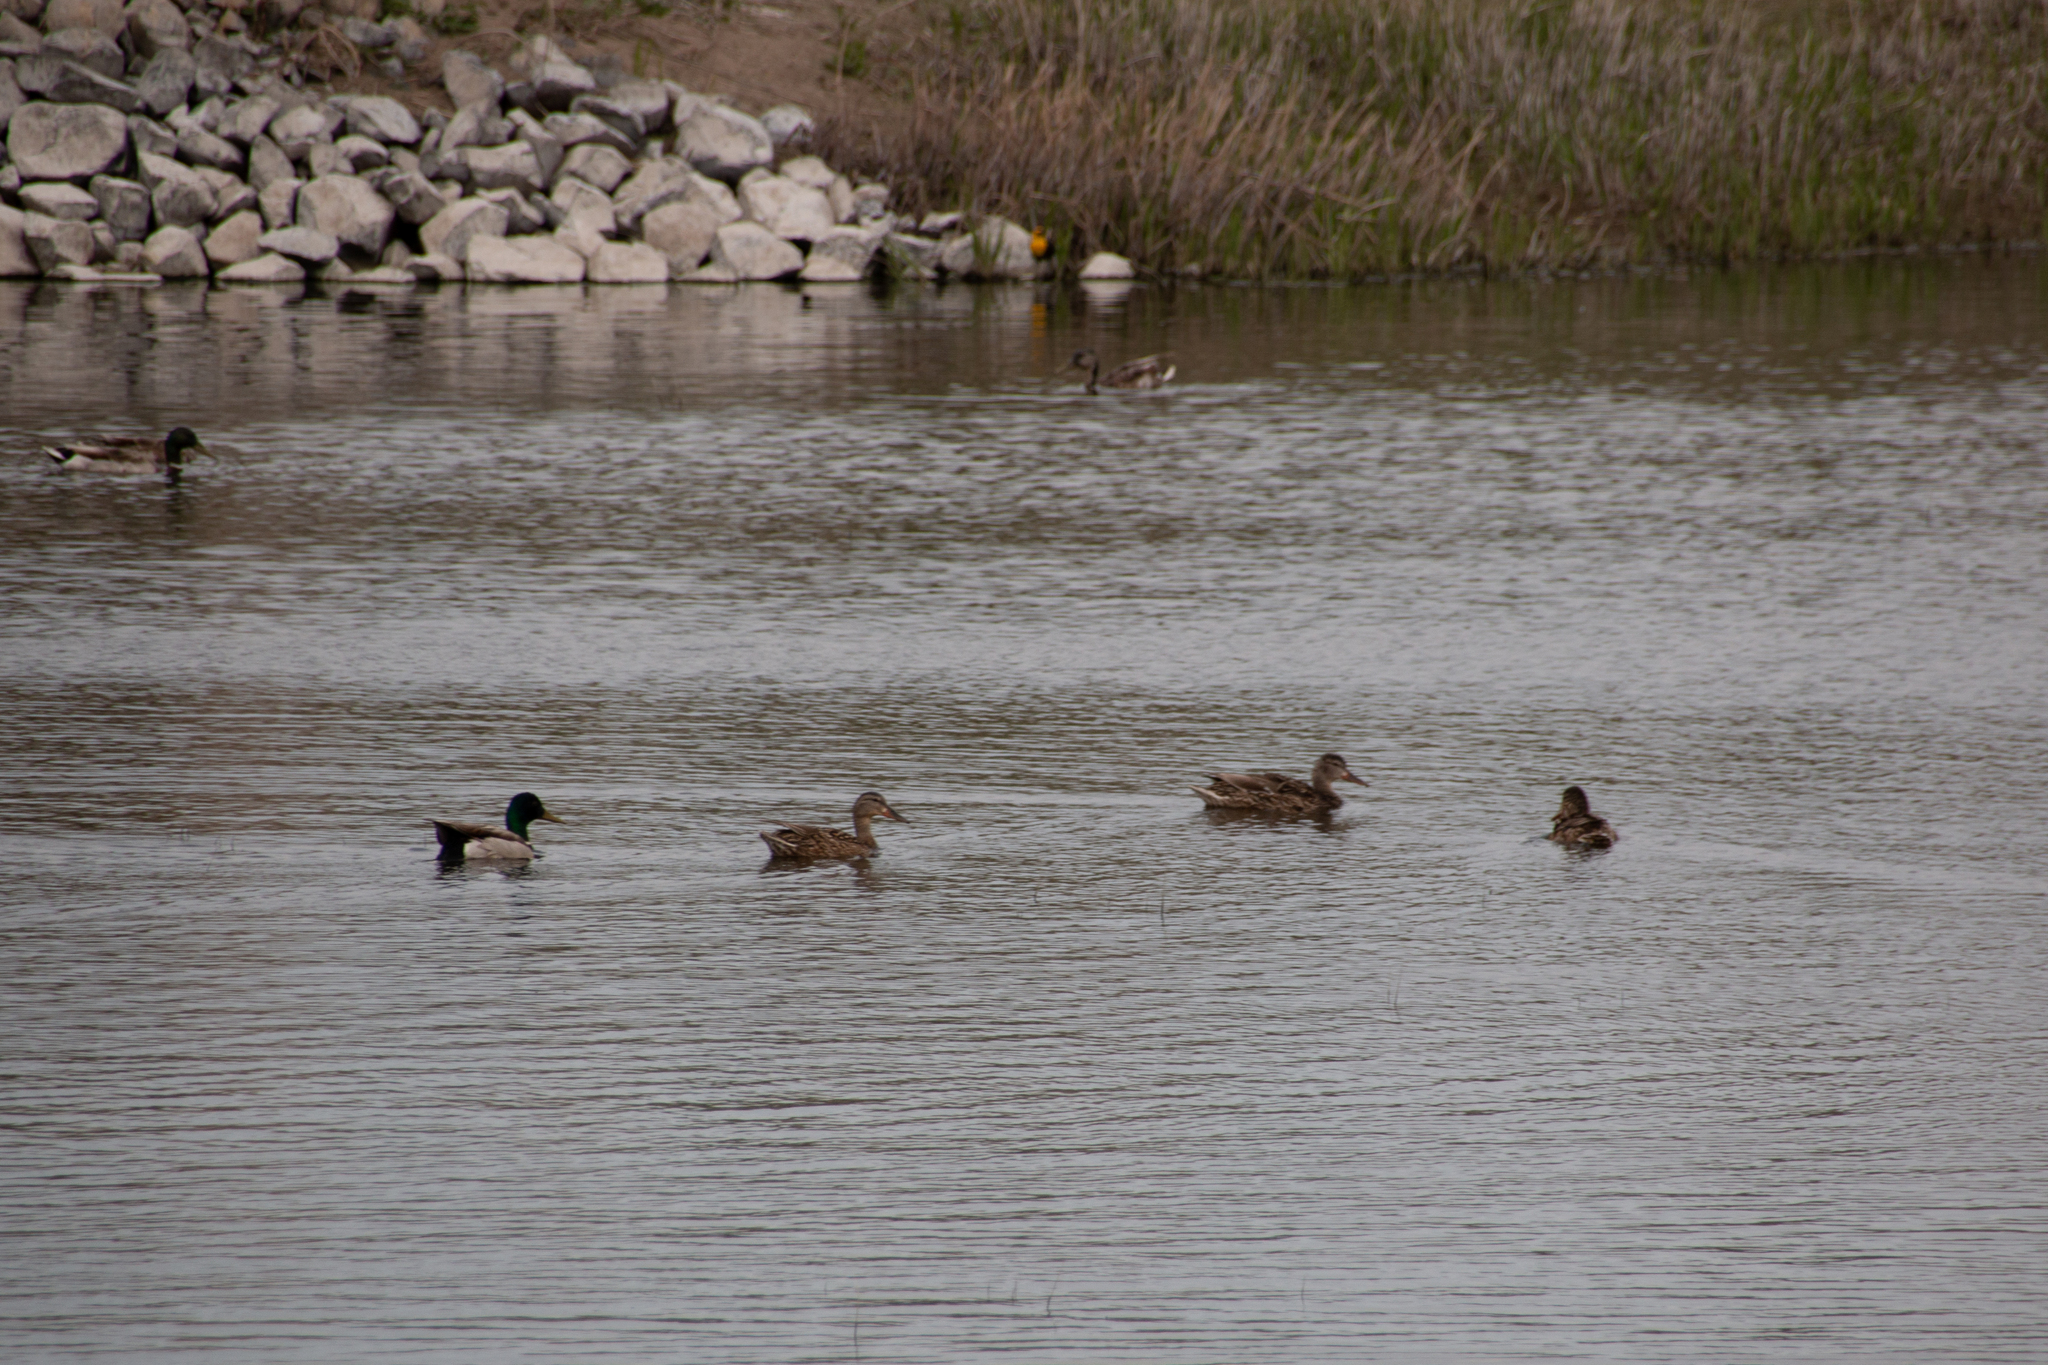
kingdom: Animalia
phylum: Chordata
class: Aves
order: Anseriformes
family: Anatidae
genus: Anas
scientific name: Anas platyrhynchos
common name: Mallard
